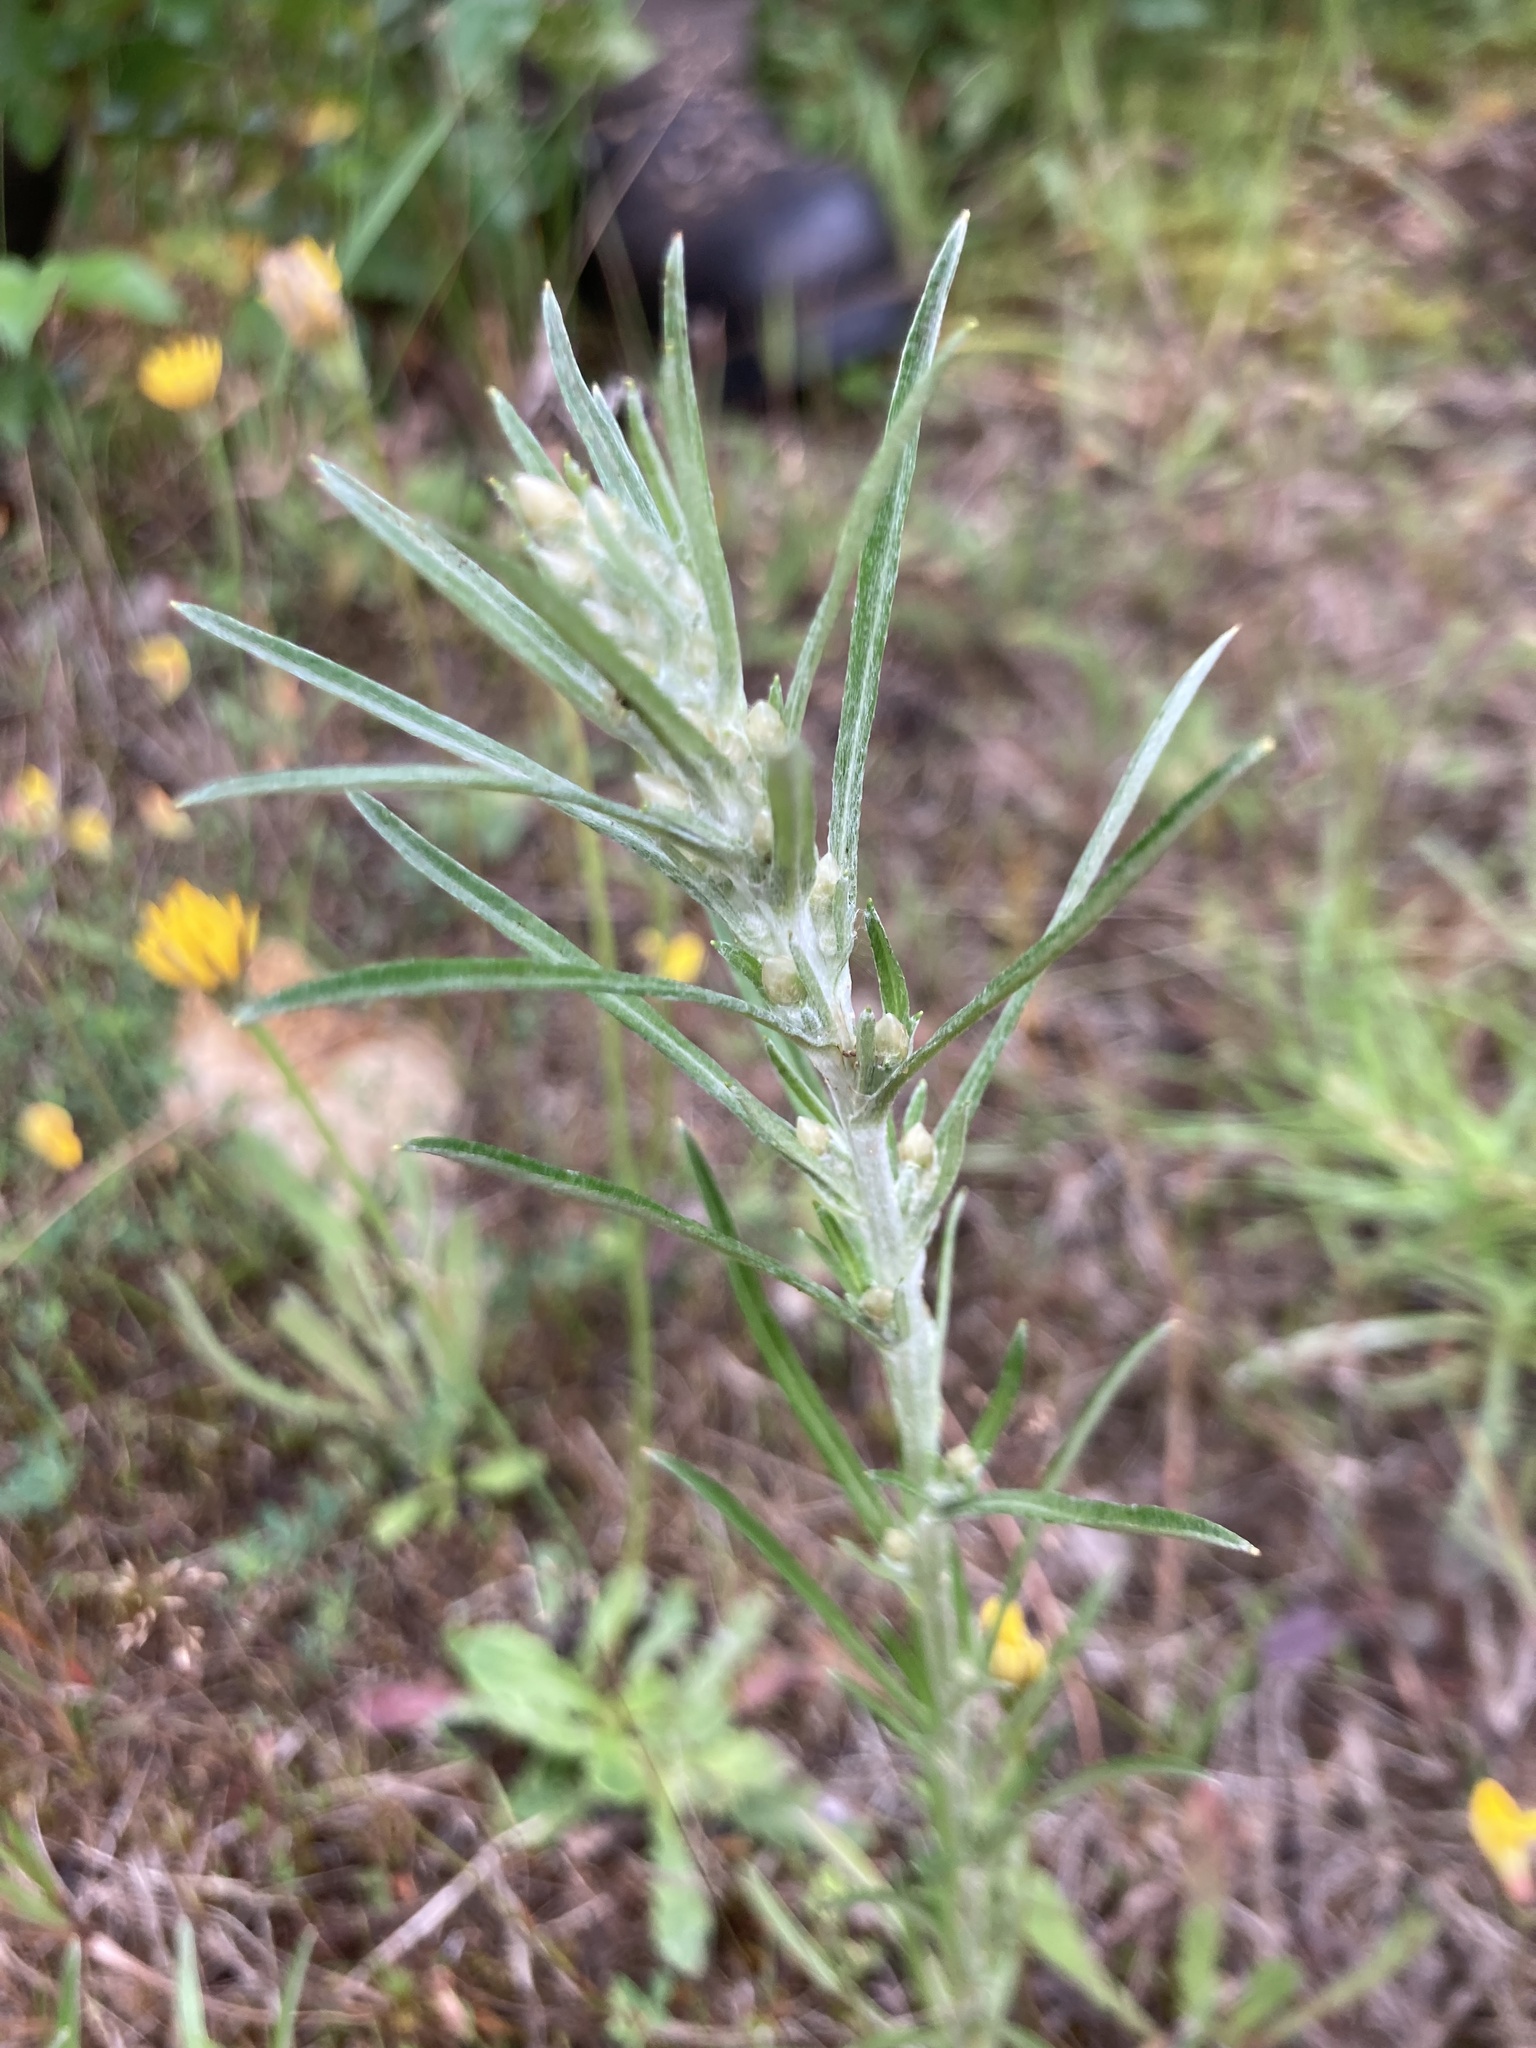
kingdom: Plantae
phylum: Tracheophyta
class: Magnoliopsida
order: Asterales
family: Asteraceae
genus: Omalotheca
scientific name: Omalotheca sylvatica
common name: Heath cudweed
